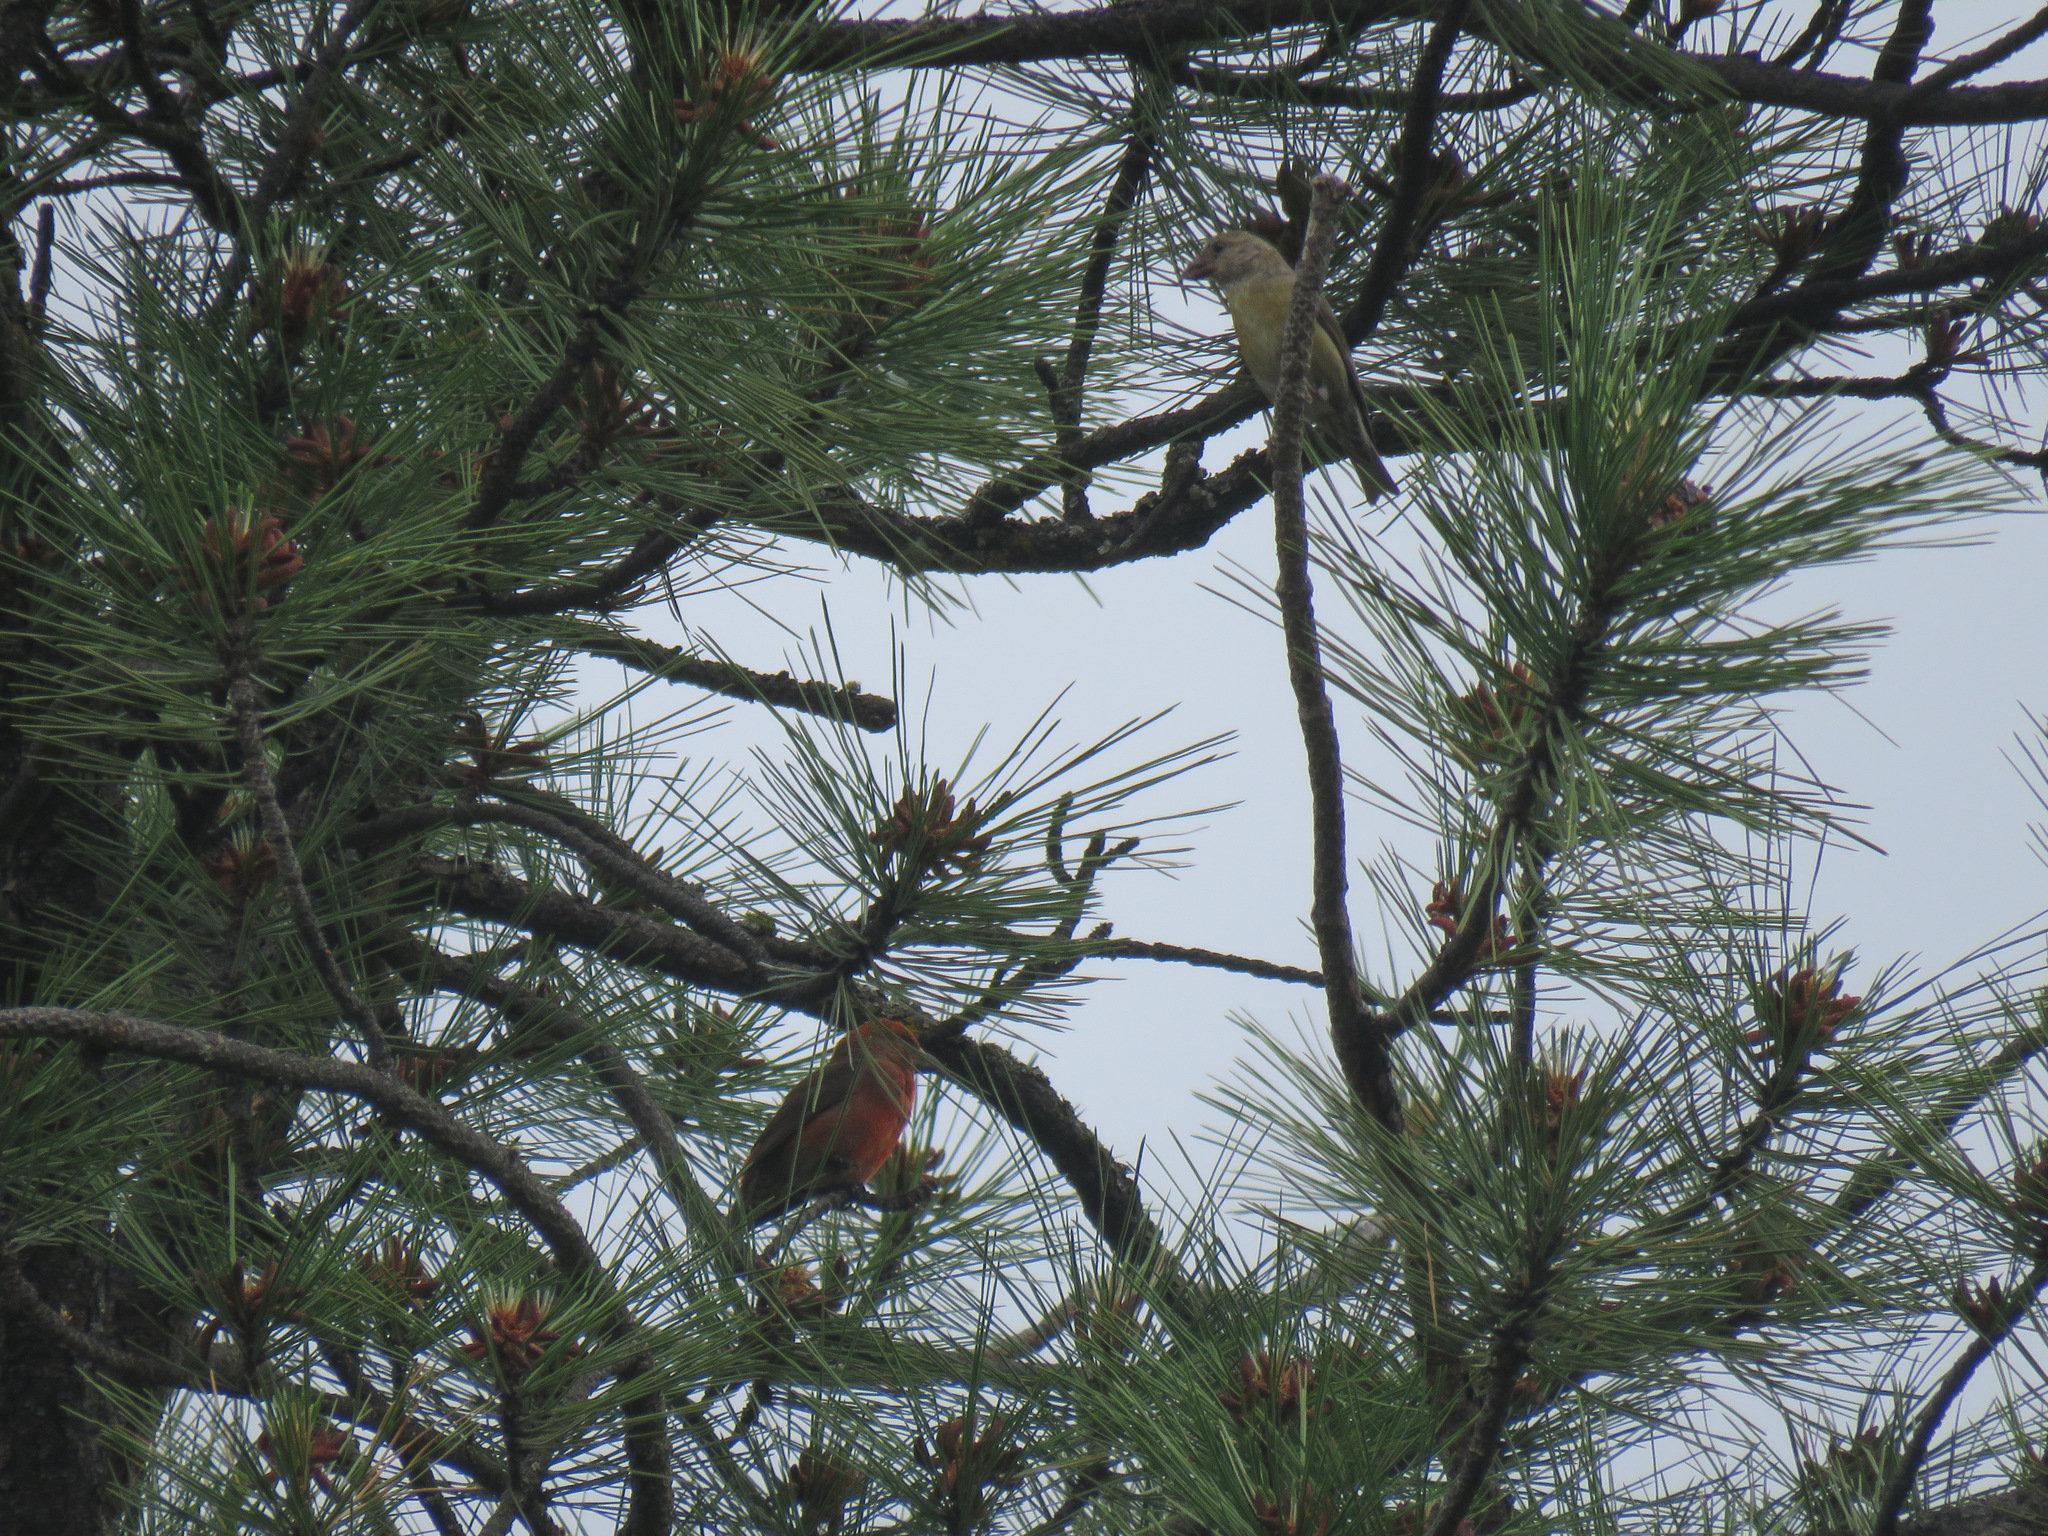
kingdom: Animalia
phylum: Chordata
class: Aves
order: Passeriformes
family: Fringillidae
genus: Loxia
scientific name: Loxia curvirostra
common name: Red crossbill
